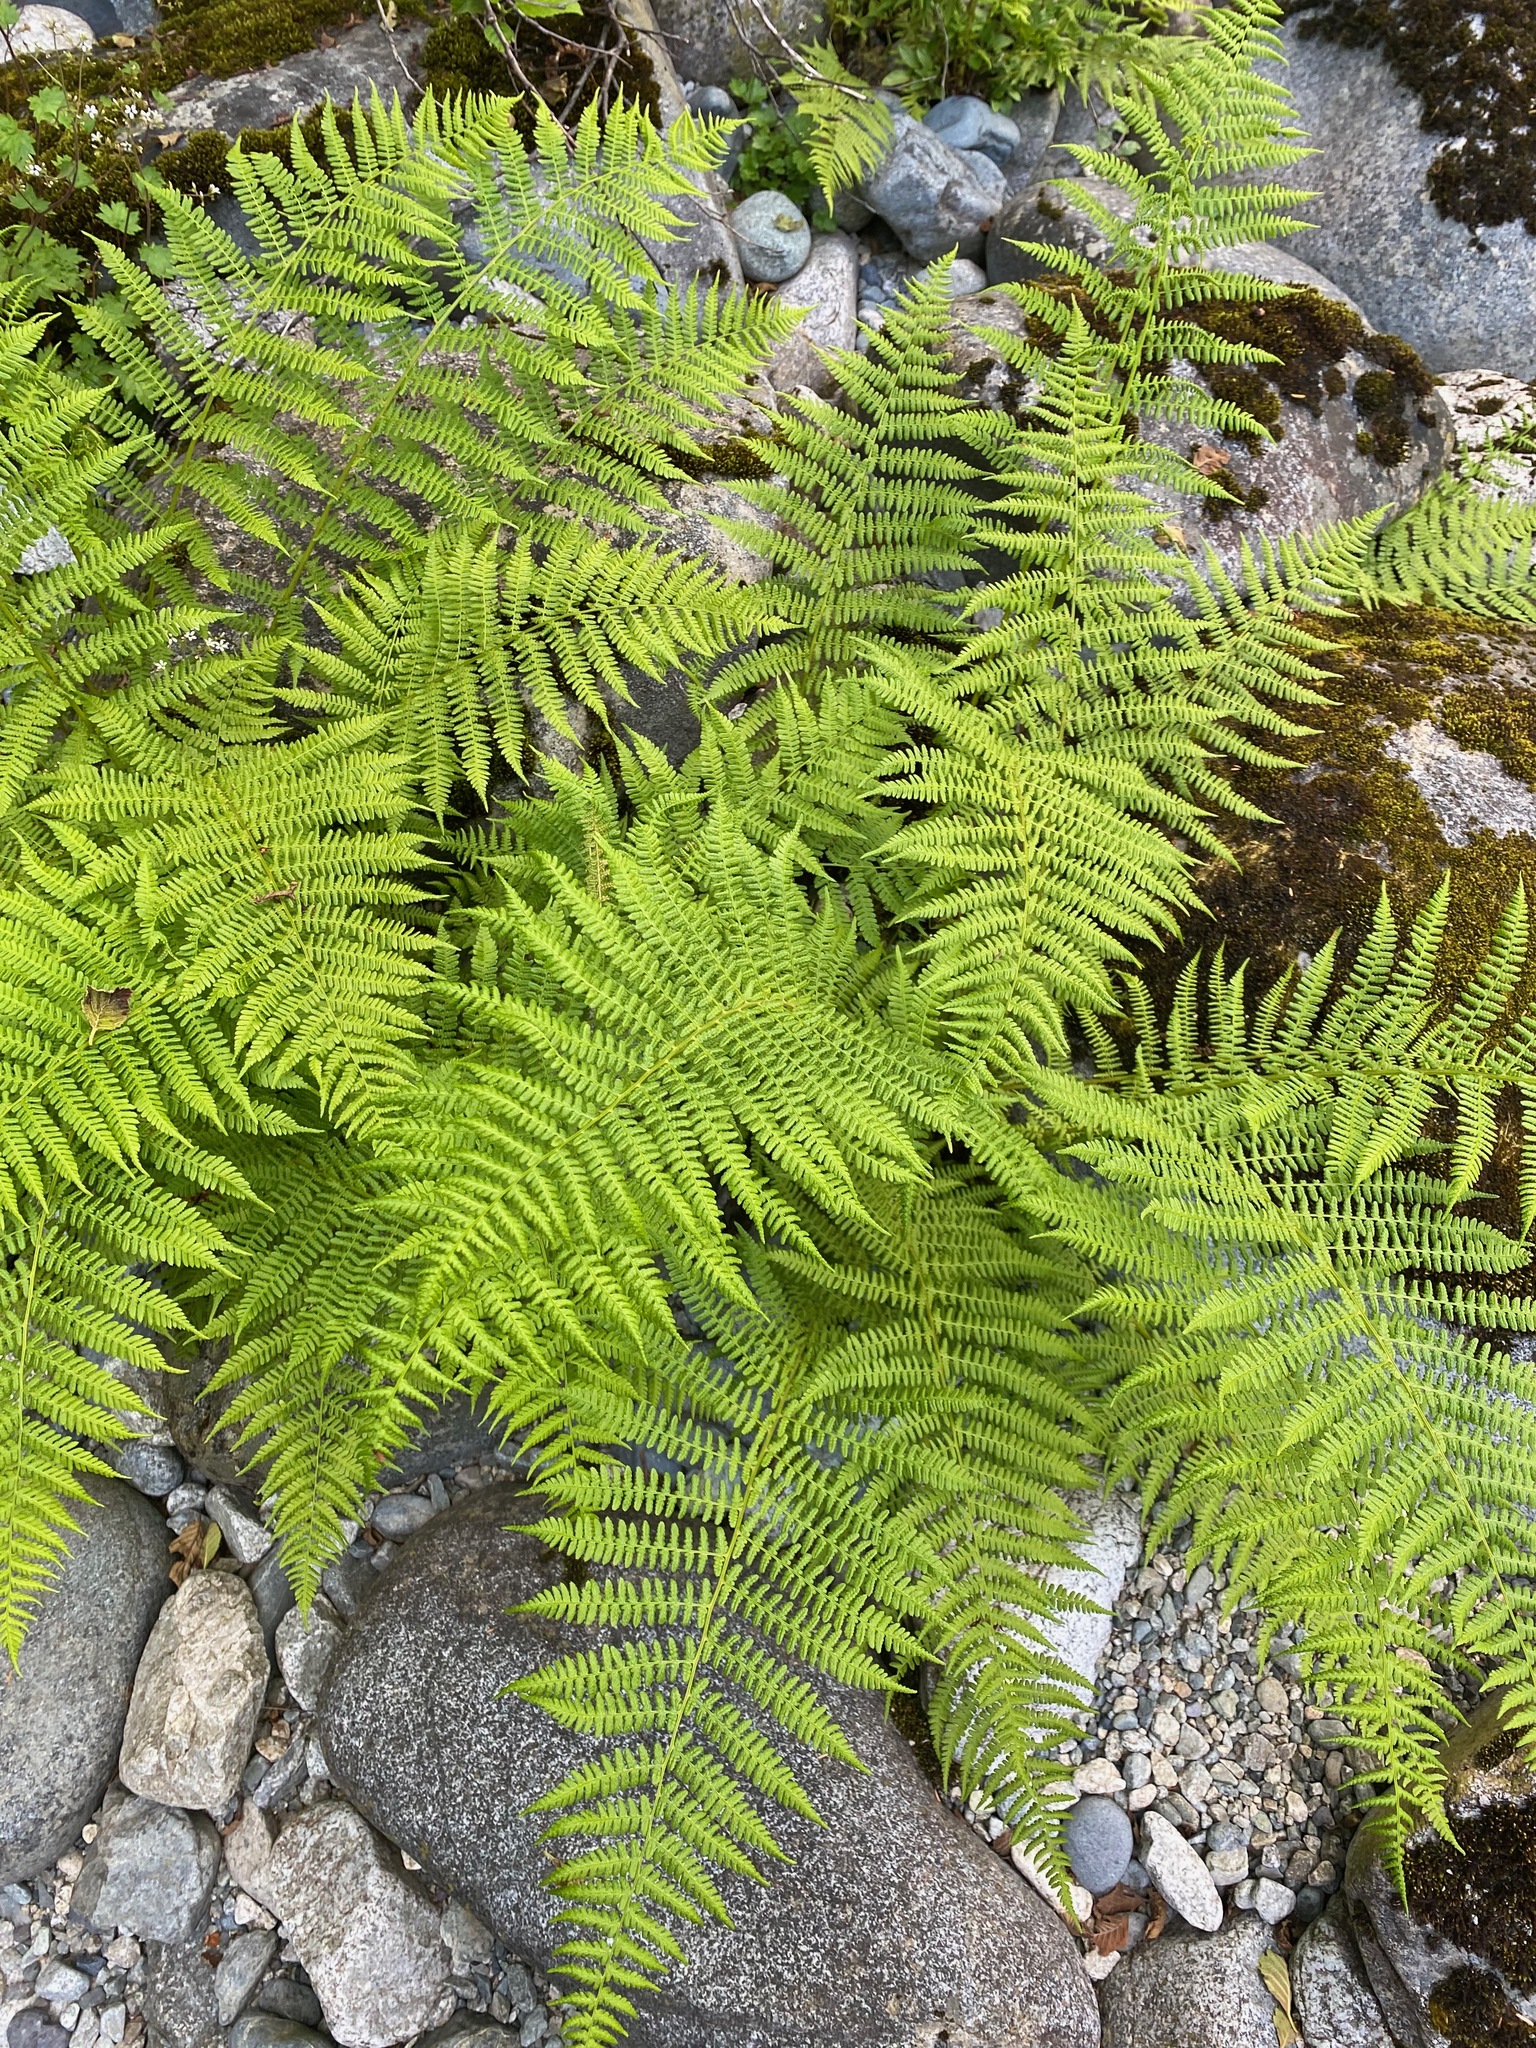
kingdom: Plantae
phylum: Tracheophyta
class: Polypodiopsida
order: Polypodiales
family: Athyriaceae
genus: Athyrium
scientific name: Athyrium filix-femina
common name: Lady fern
